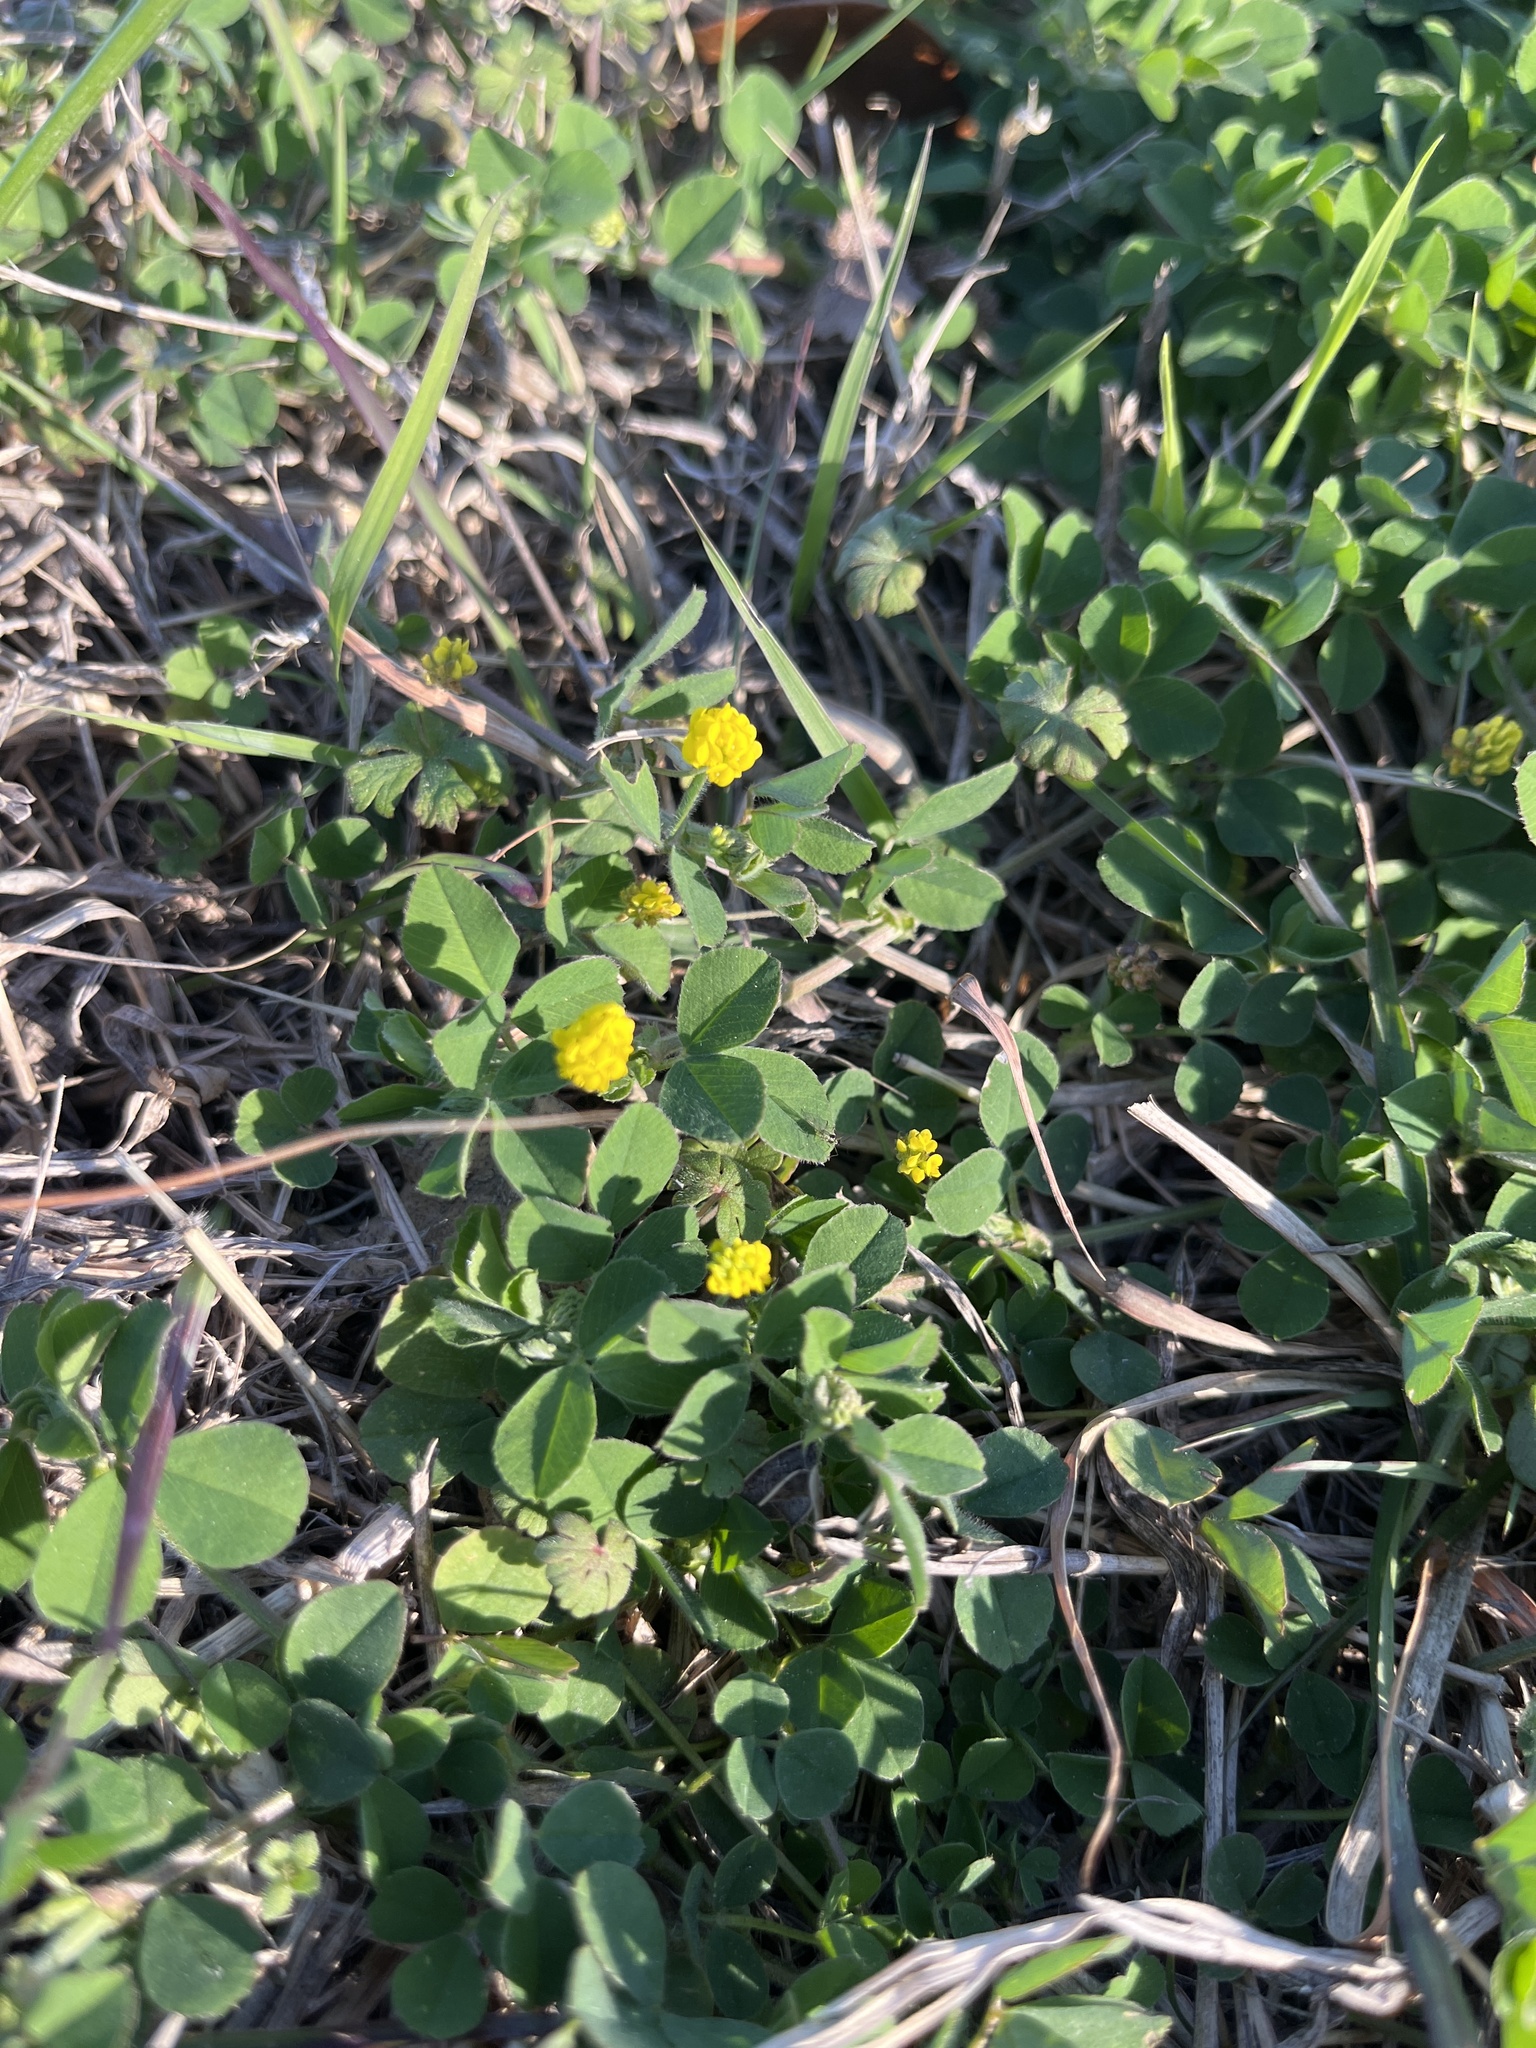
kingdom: Plantae
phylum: Tracheophyta
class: Magnoliopsida
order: Fabales
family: Fabaceae
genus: Medicago
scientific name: Medicago lupulina
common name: Black medick
